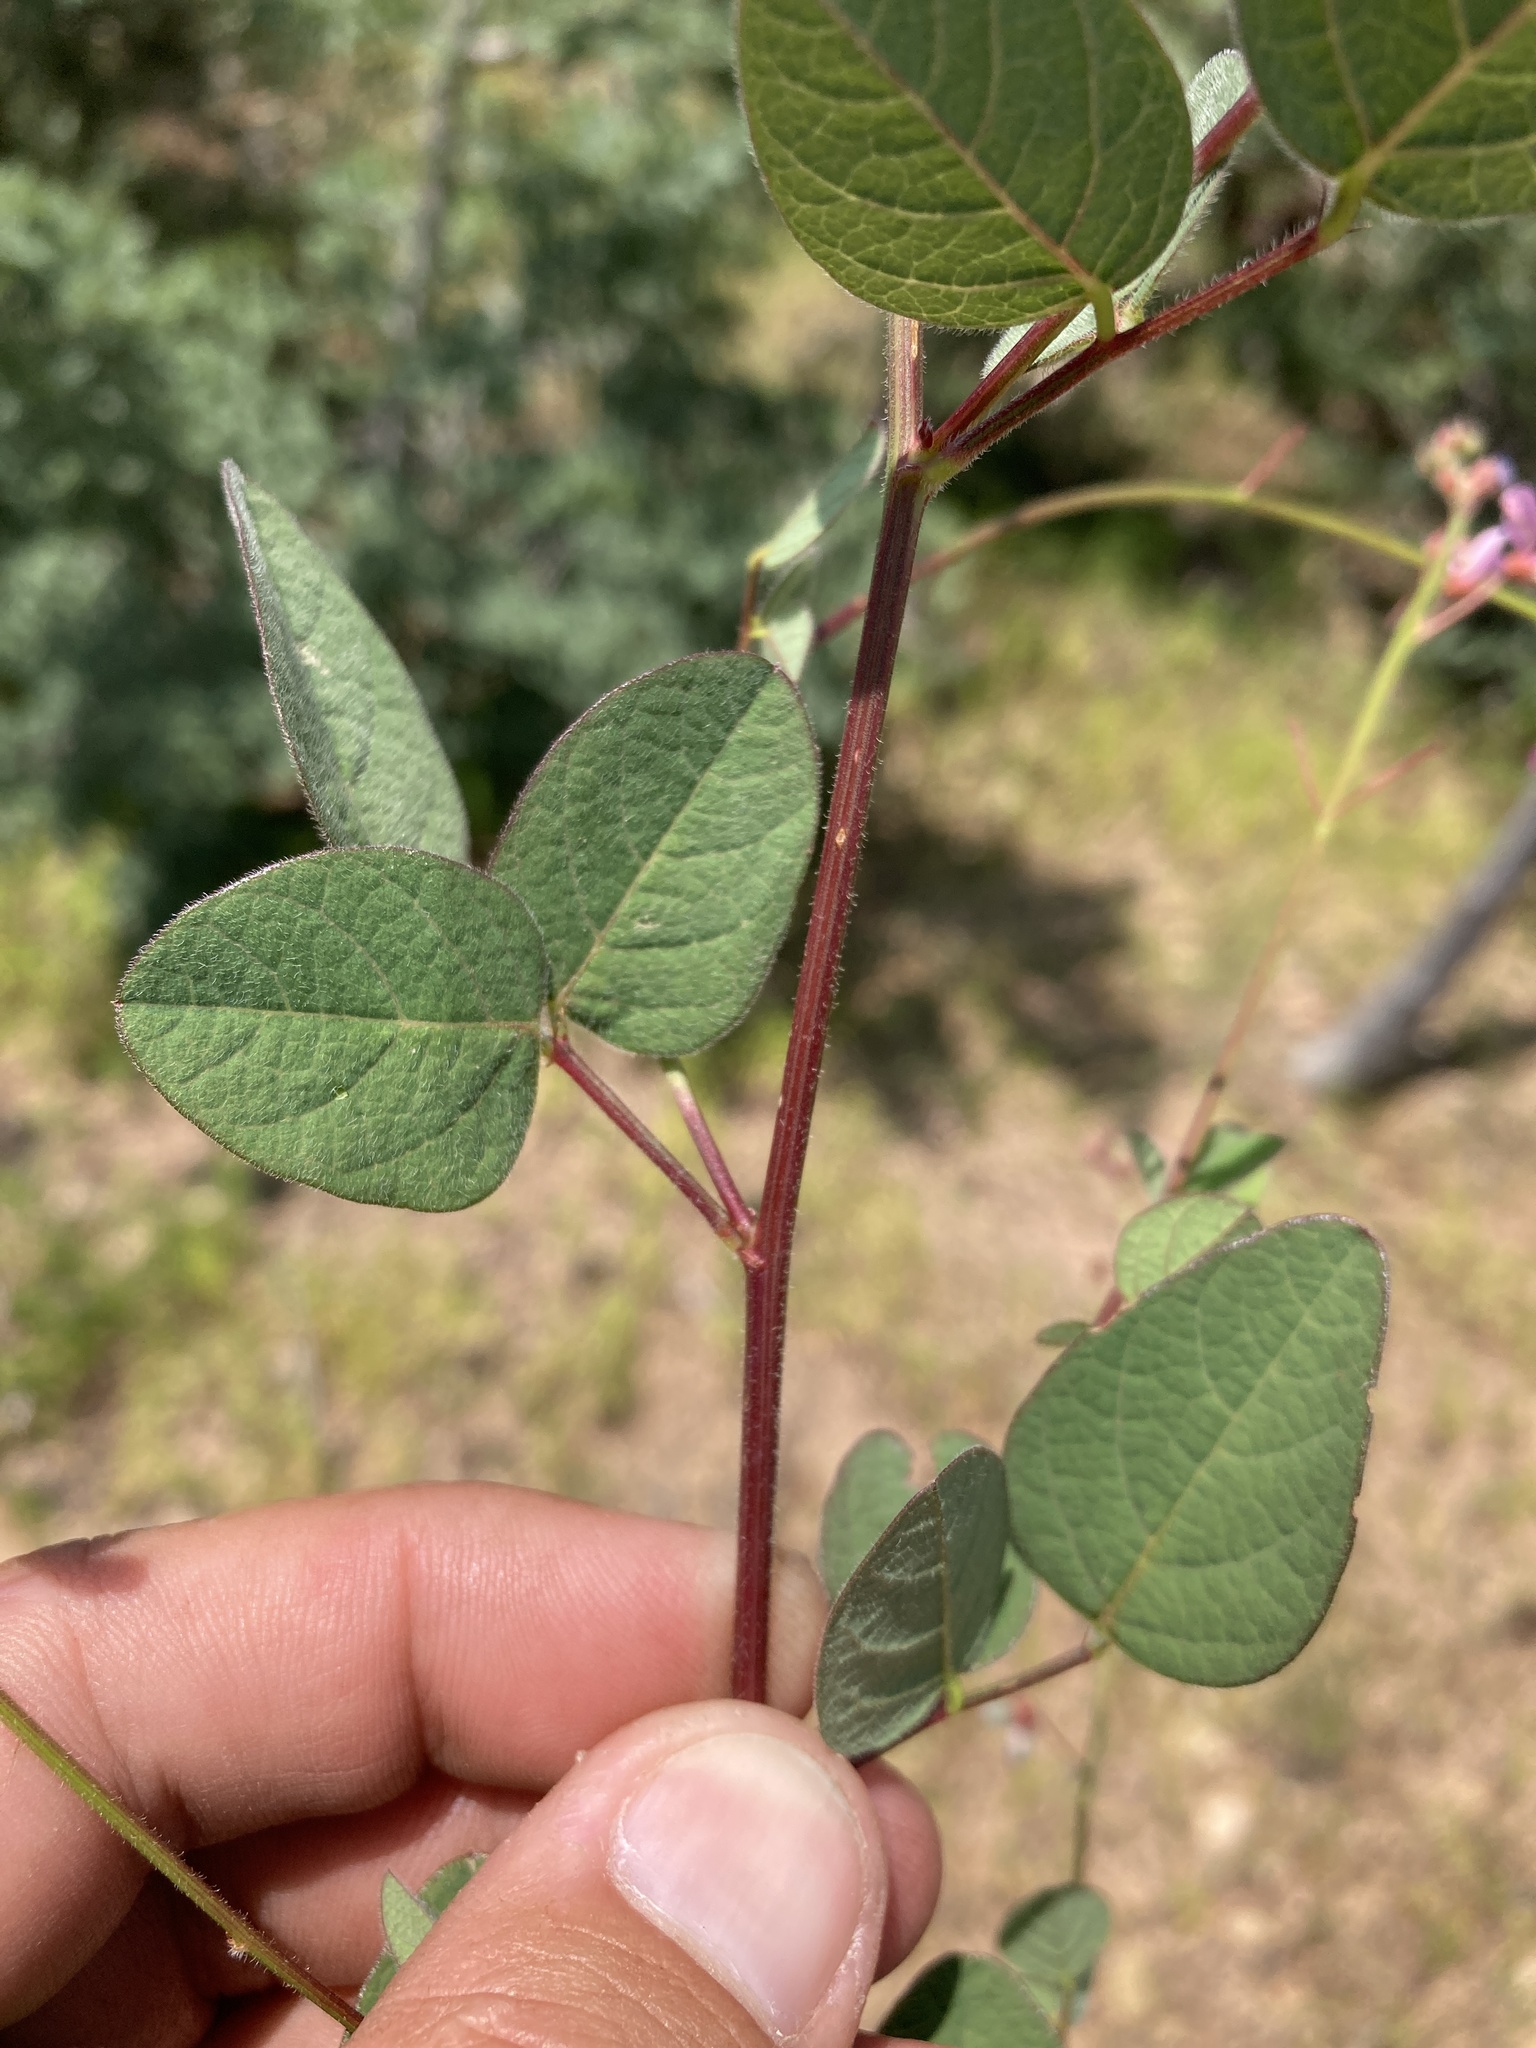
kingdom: Plantae
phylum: Tracheophyta
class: Magnoliopsida
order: Fabales
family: Fabaceae
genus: Desmodium
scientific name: Desmodium grahamii
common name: Graham's tick-trefoil
